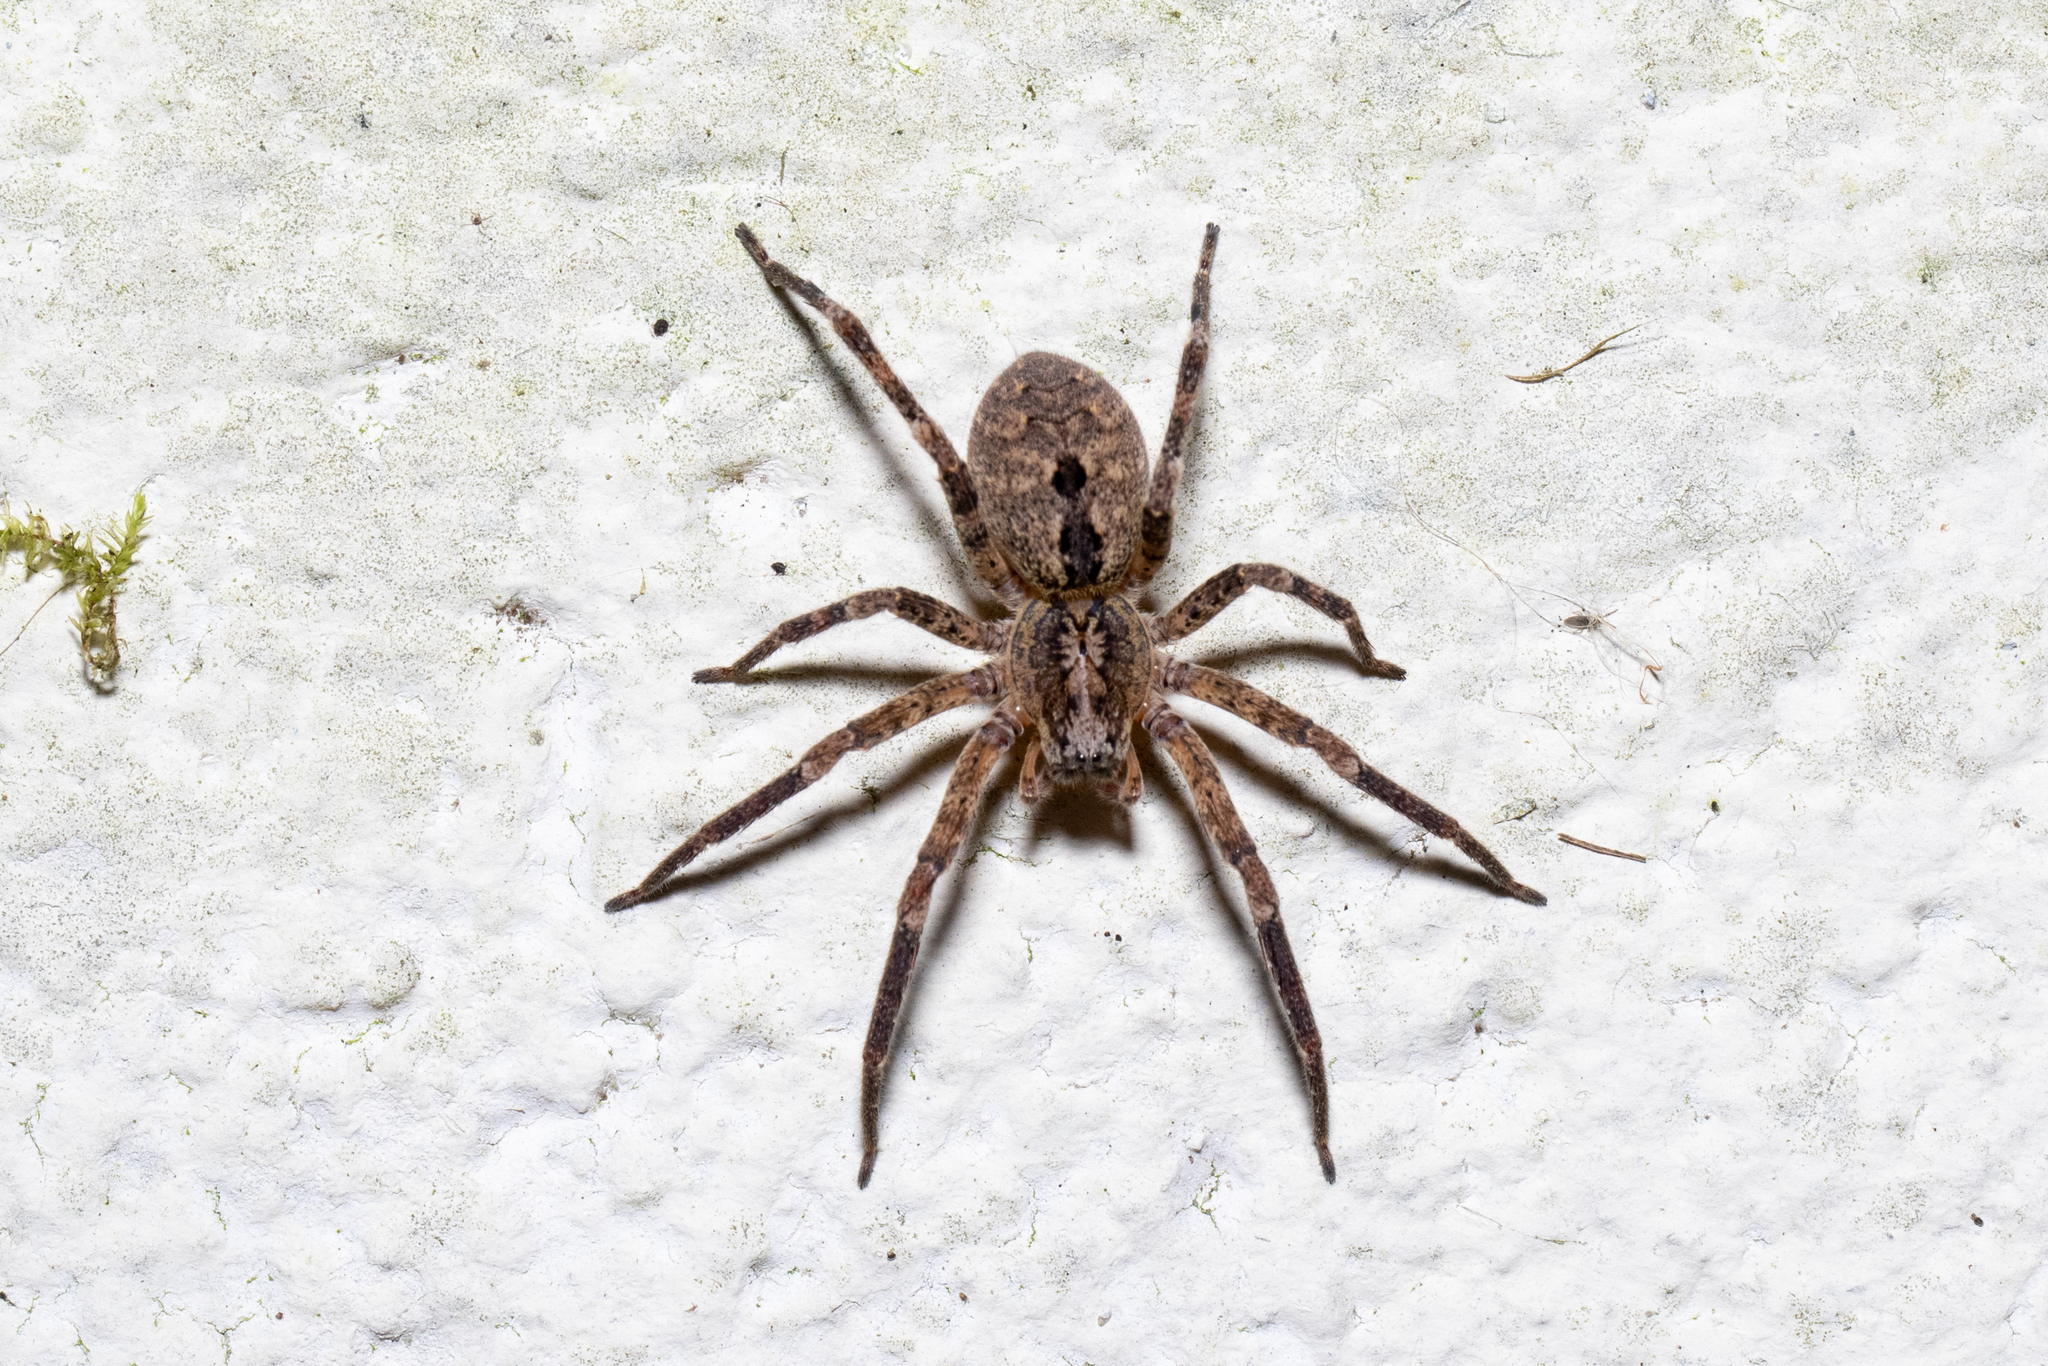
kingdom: Animalia
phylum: Arthropoda
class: Arachnida
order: Araneae
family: Zoropsidae
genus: Zoropsis
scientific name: Zoropsis spinimana
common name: Zoropsid spider
